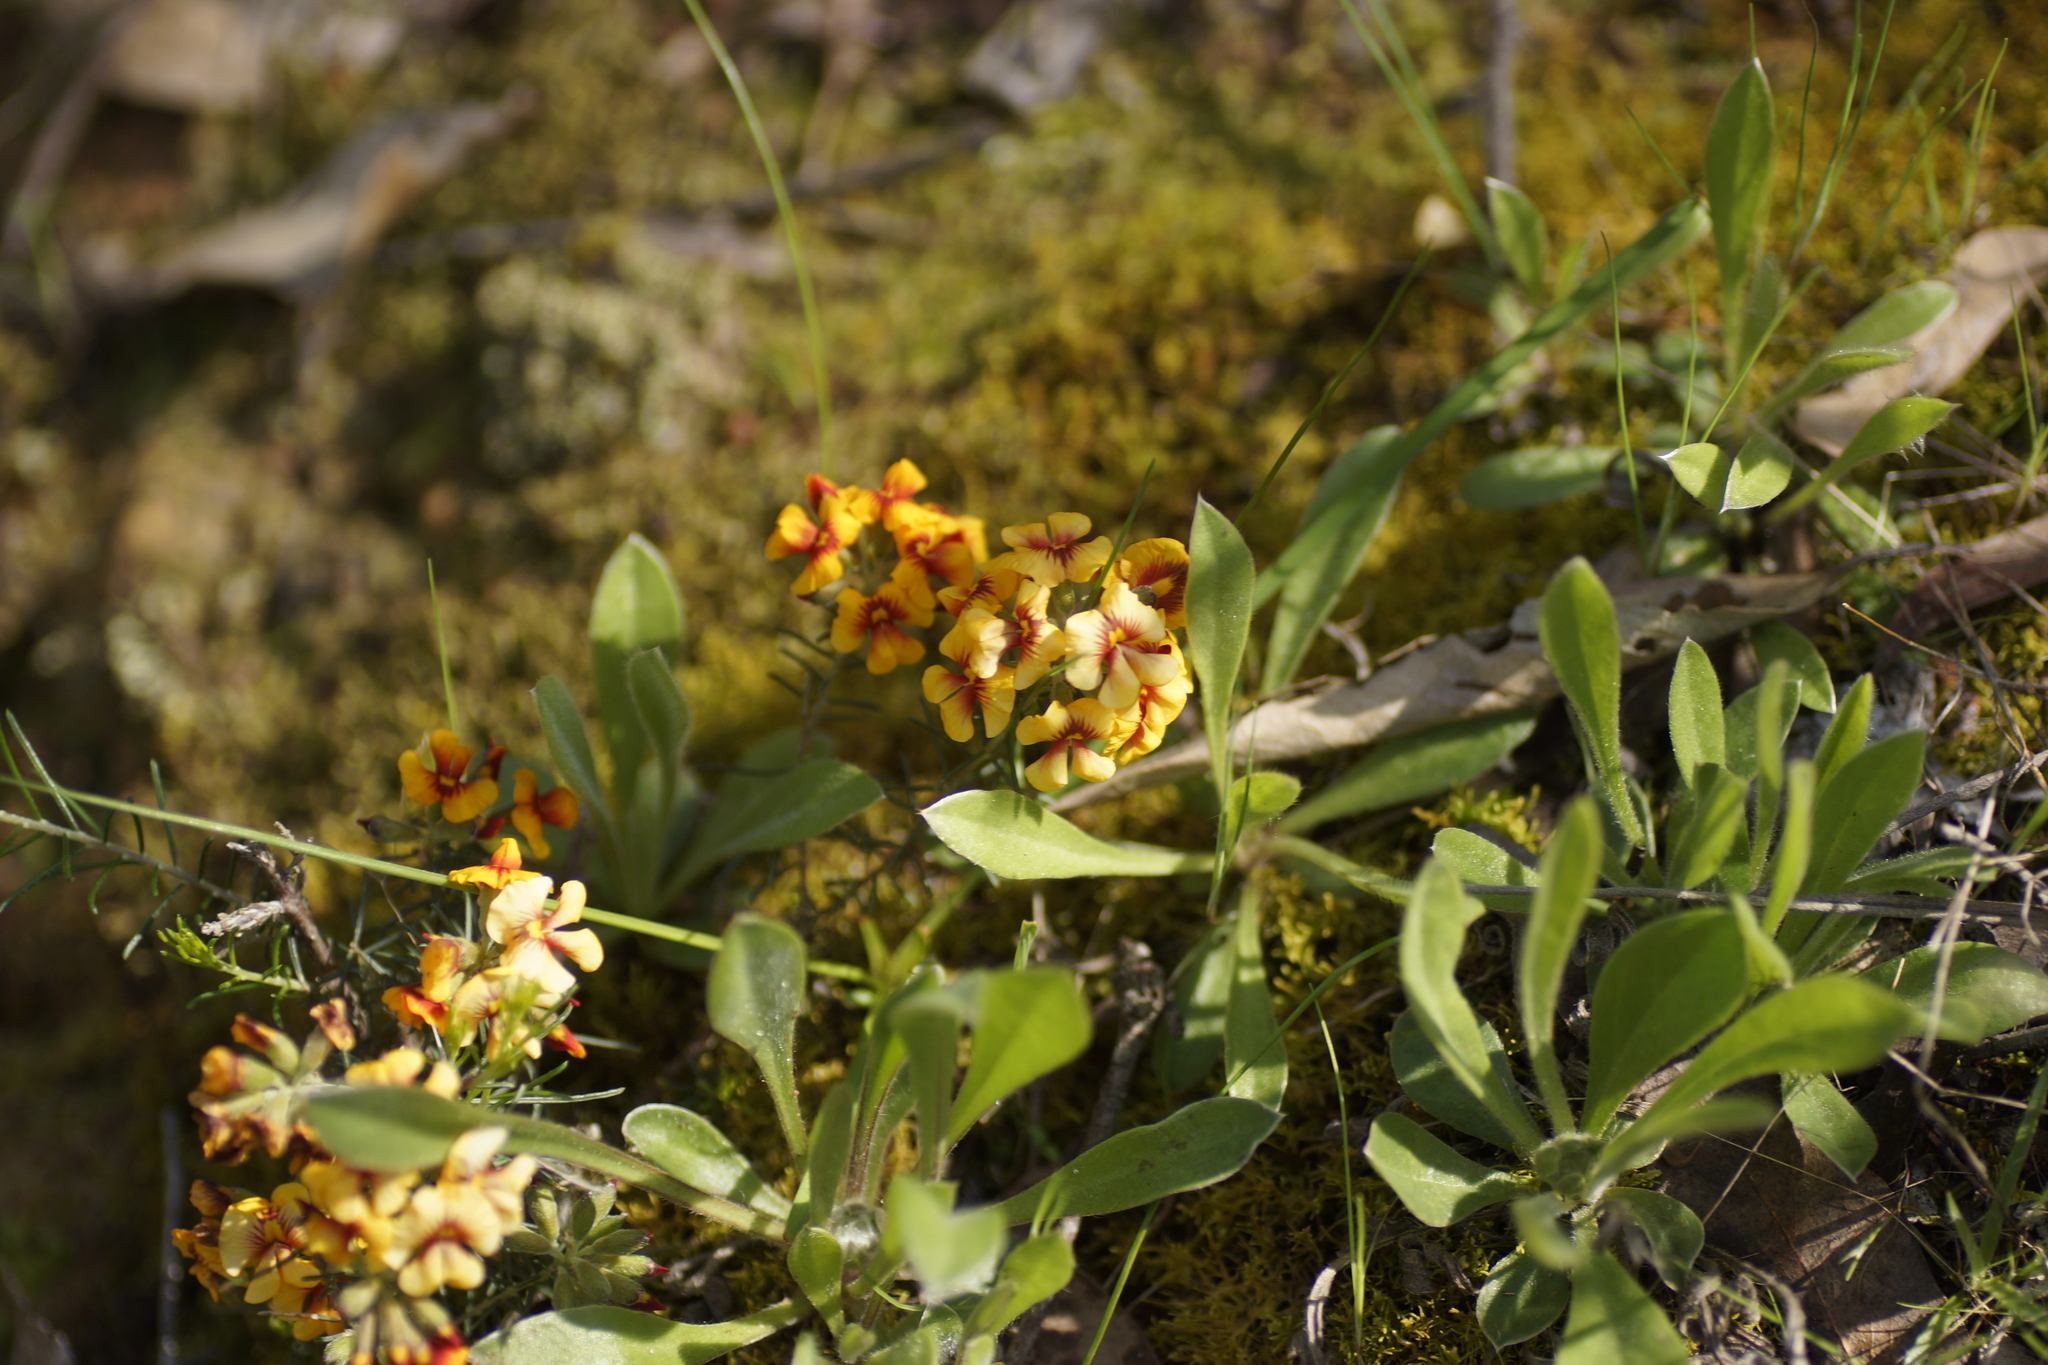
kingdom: Plantae
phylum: Tracheophyta
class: Magnoliopsida
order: Fabales
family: Fabaceae
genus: Dillwynia
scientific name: Dillwynia cinerascens
